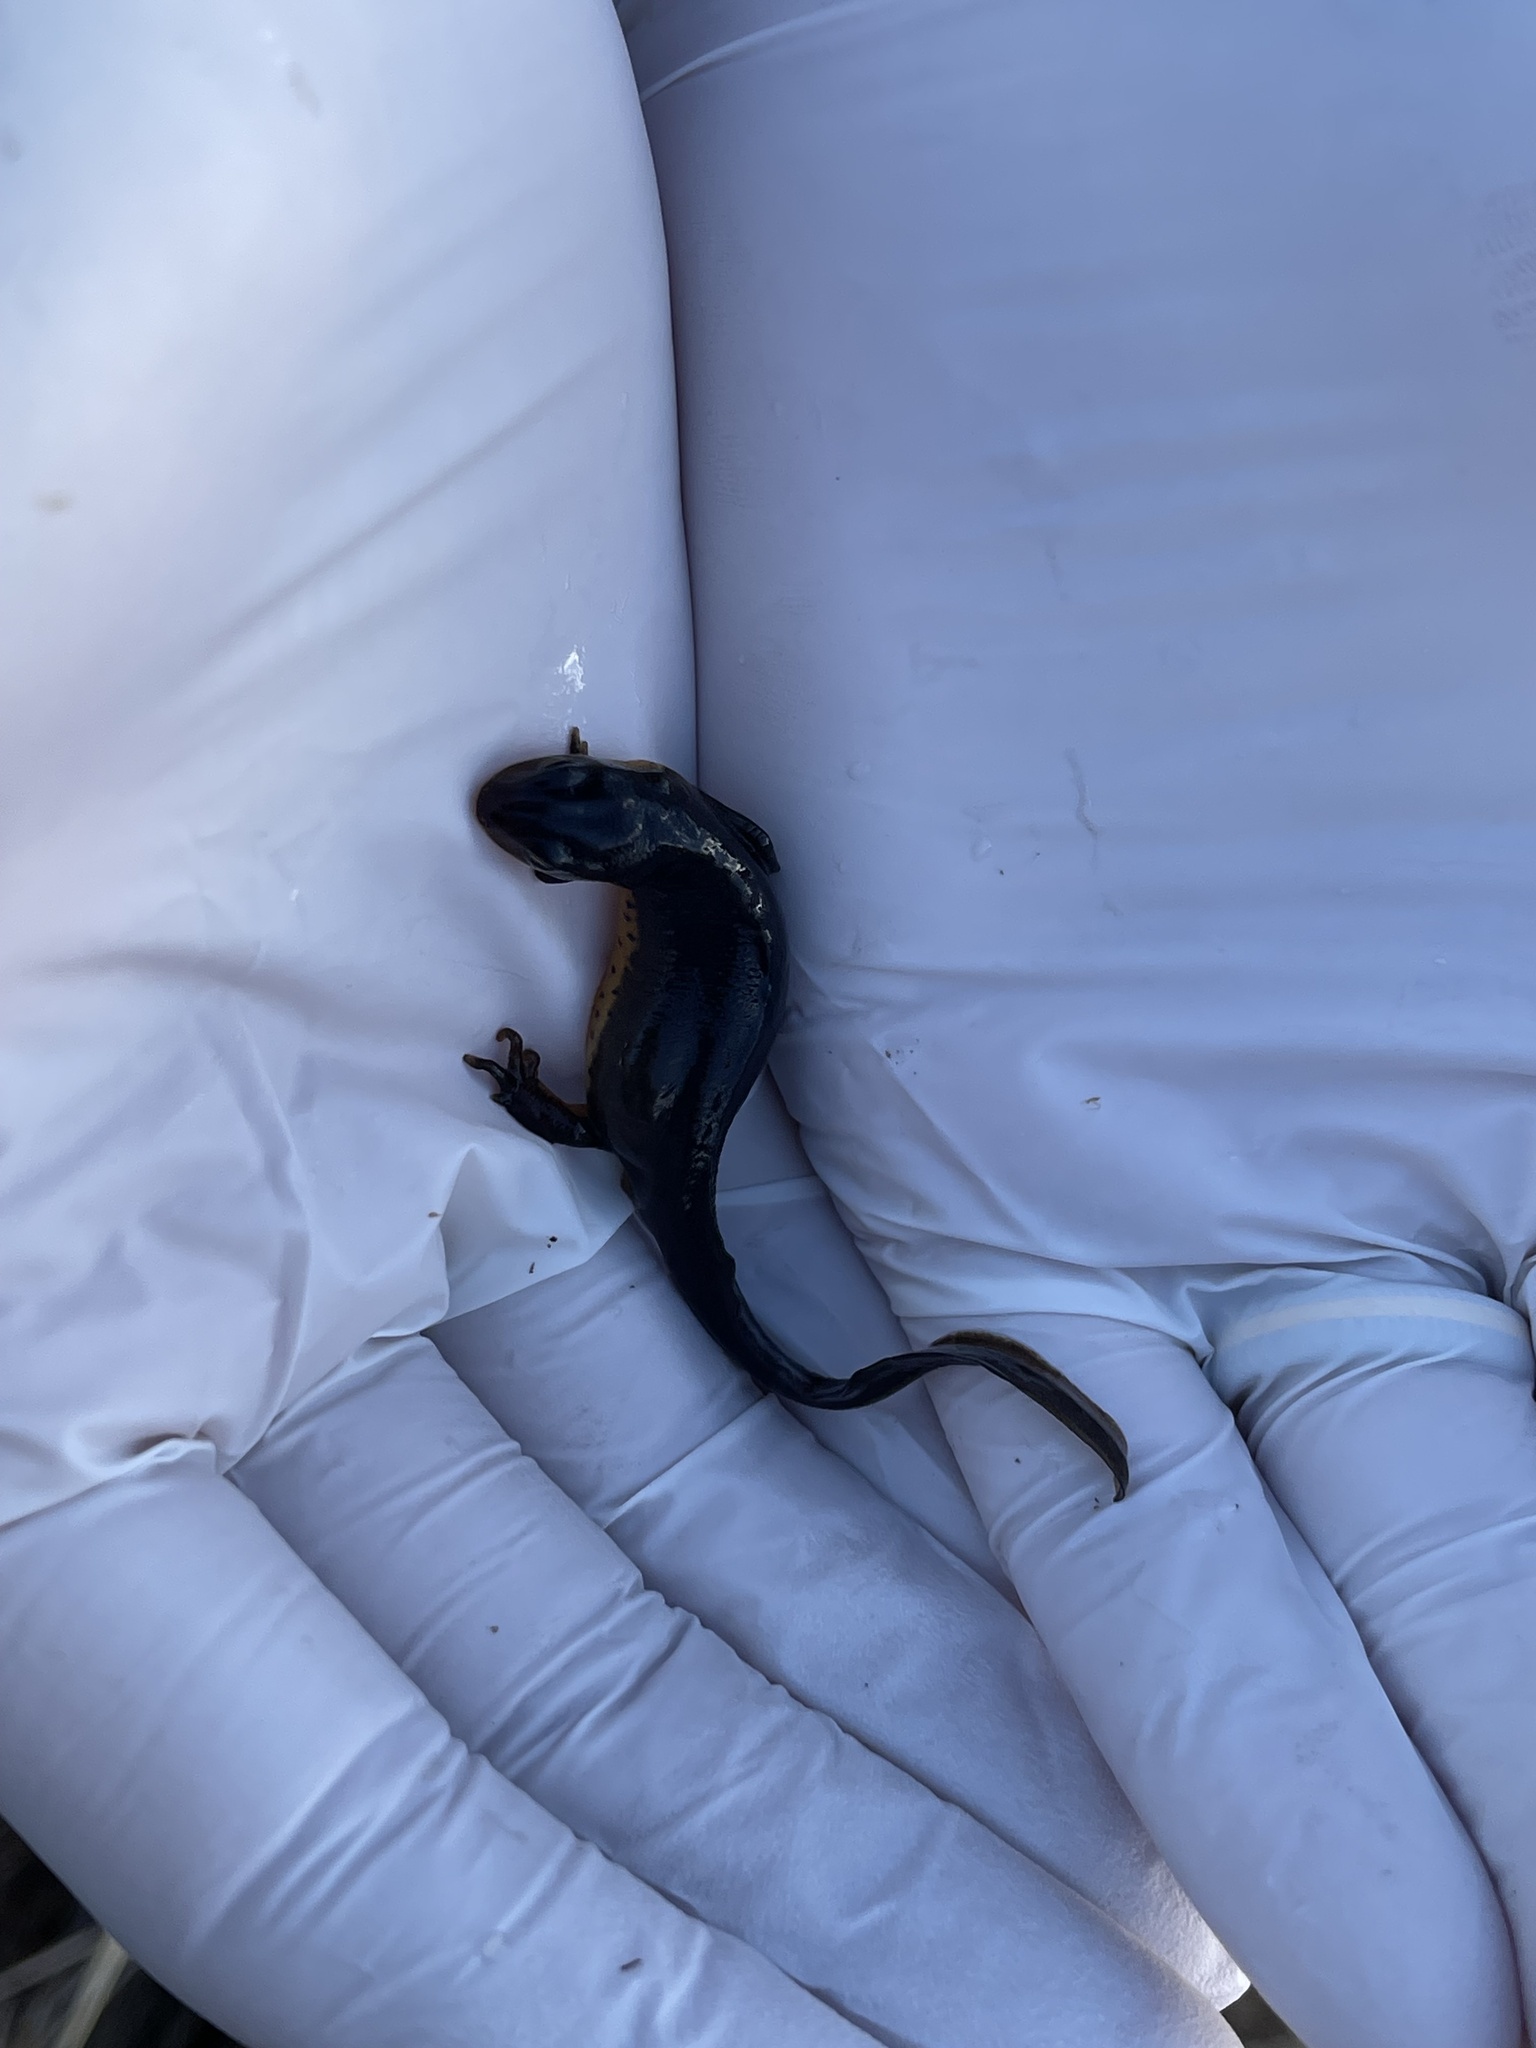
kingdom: Animalia
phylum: Chordata
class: Amphibia
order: Caudata
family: Salamandridae
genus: Notophthalmus
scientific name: Notophthalmus viridescens
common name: Eastern newt
